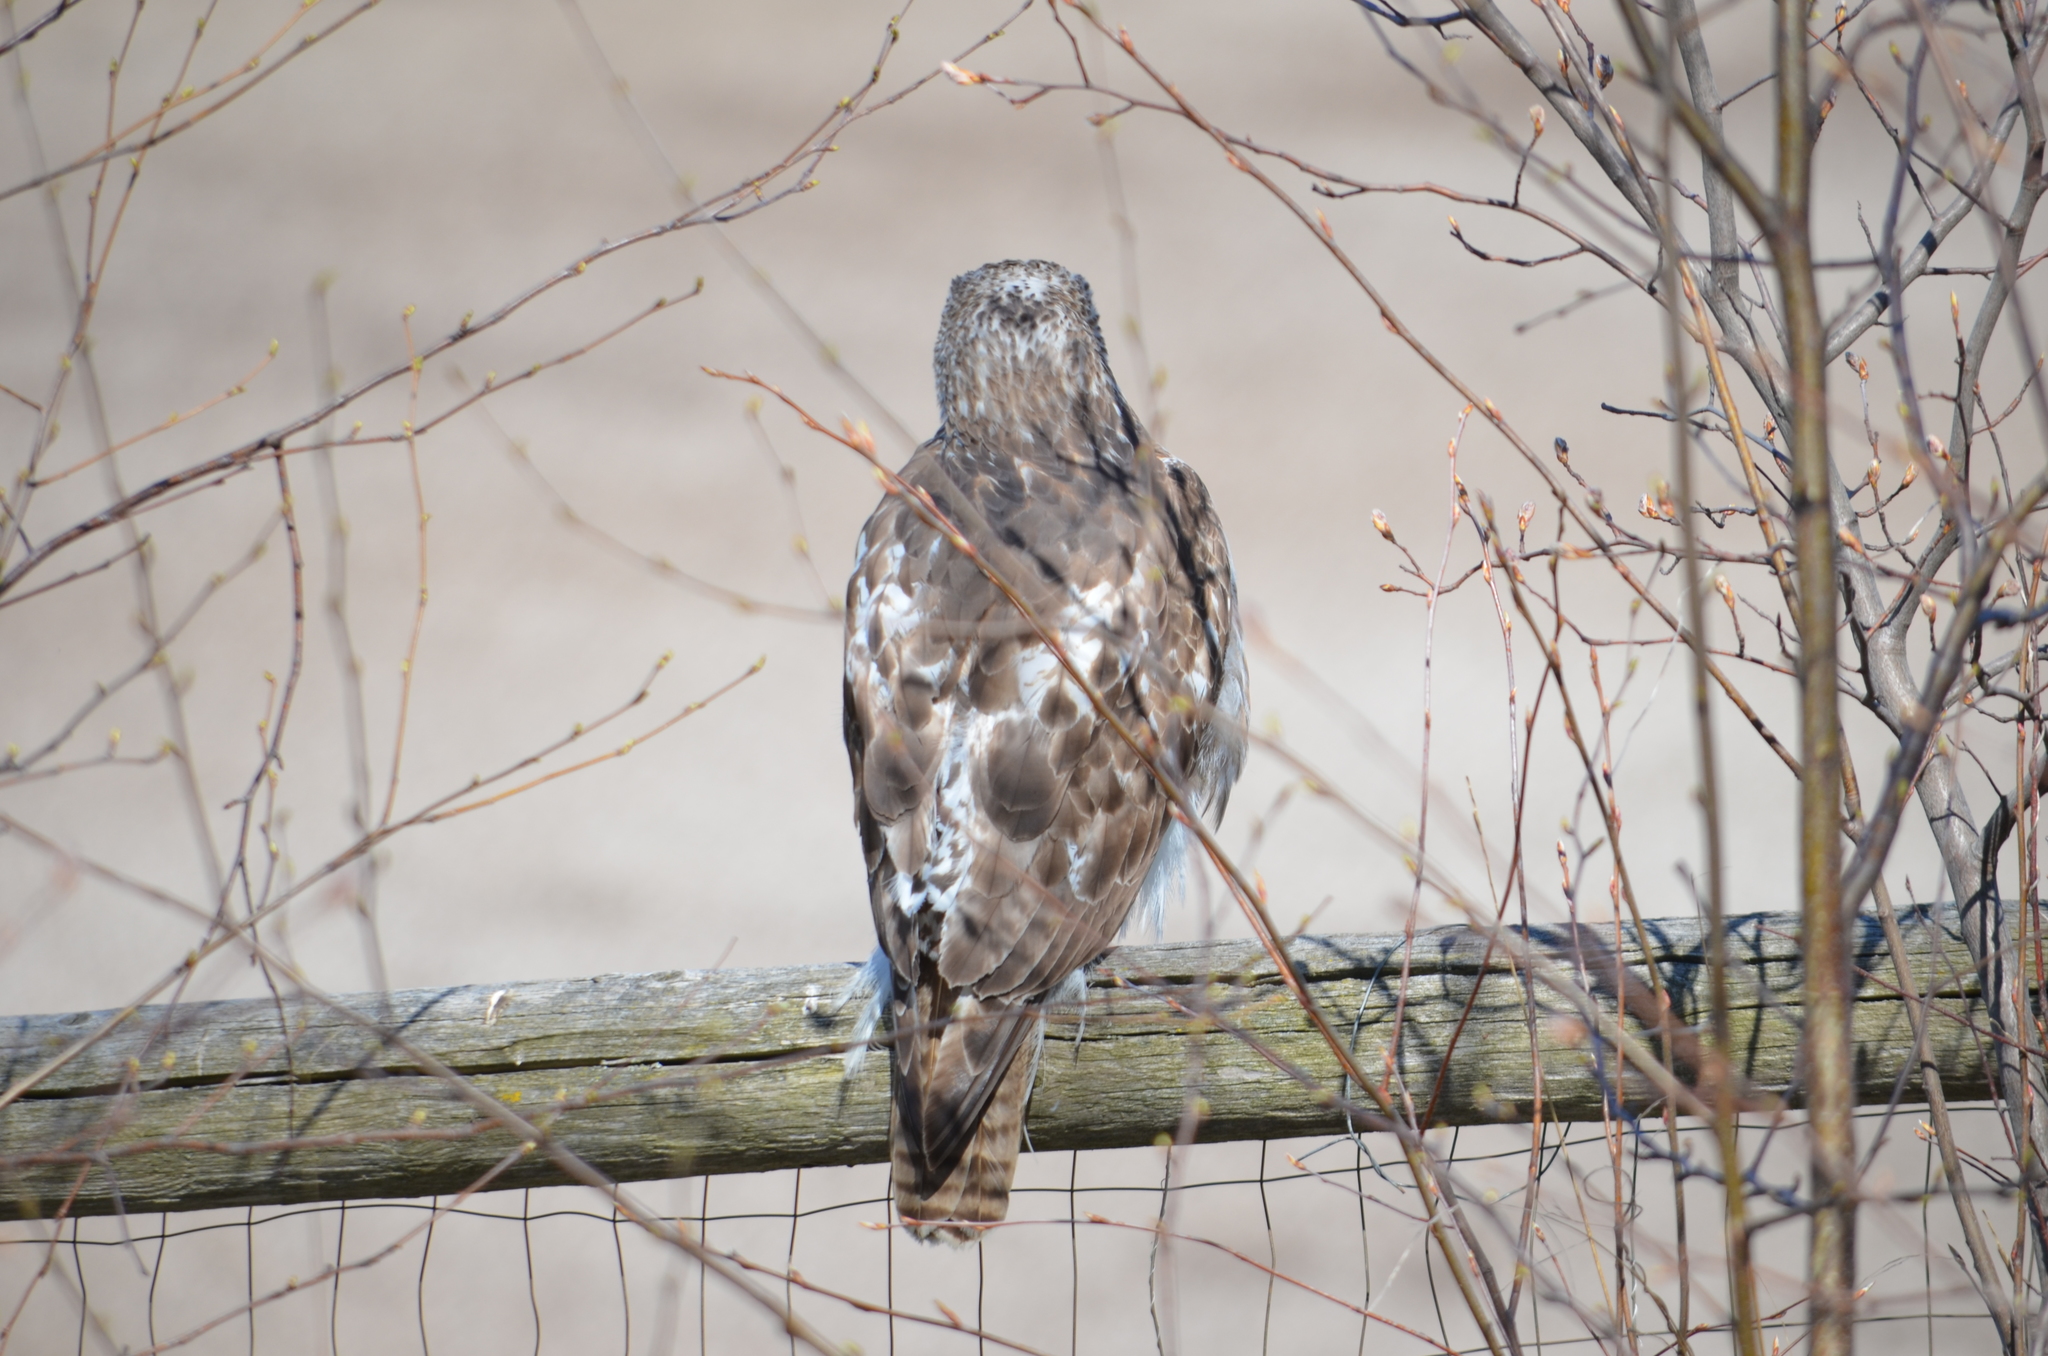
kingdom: Animalia
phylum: Chordata
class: Aves
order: Accipitriformes
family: Accipitridae
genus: Buteo
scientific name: Buteo jamaicensis
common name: Red-tailed hawk
